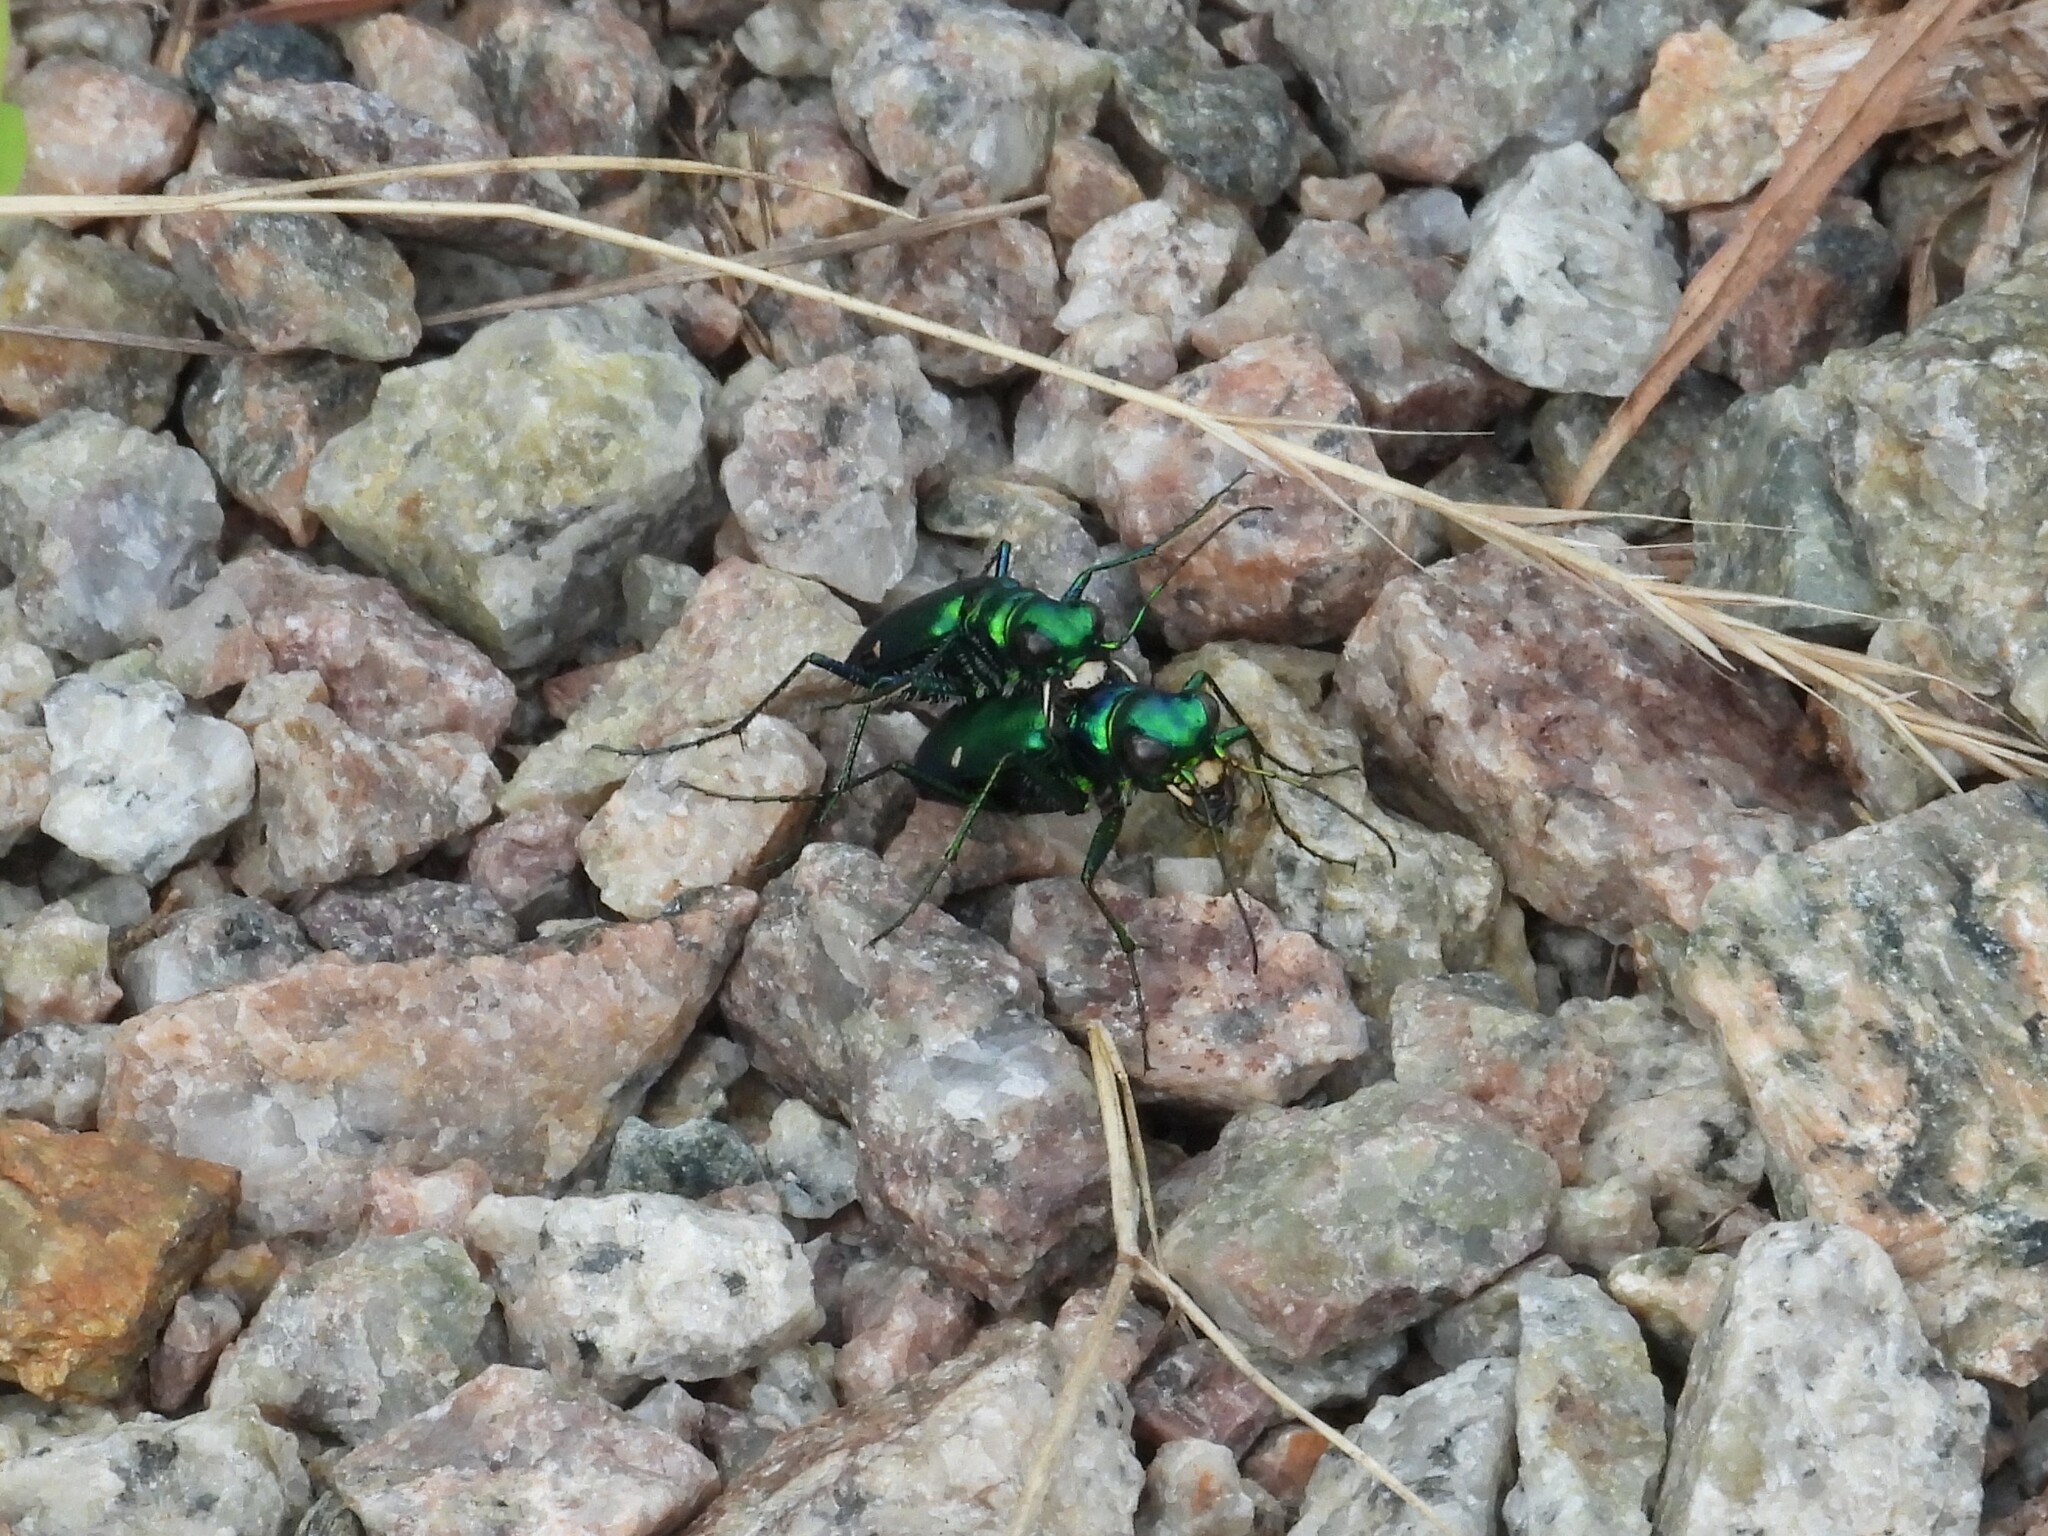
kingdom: Animalia
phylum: Arthropoda
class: Insecta
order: Coleoptera
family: Carabidae
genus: Cicindela
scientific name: Cicindela sexguttata
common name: Six-spotted tiger beetle
